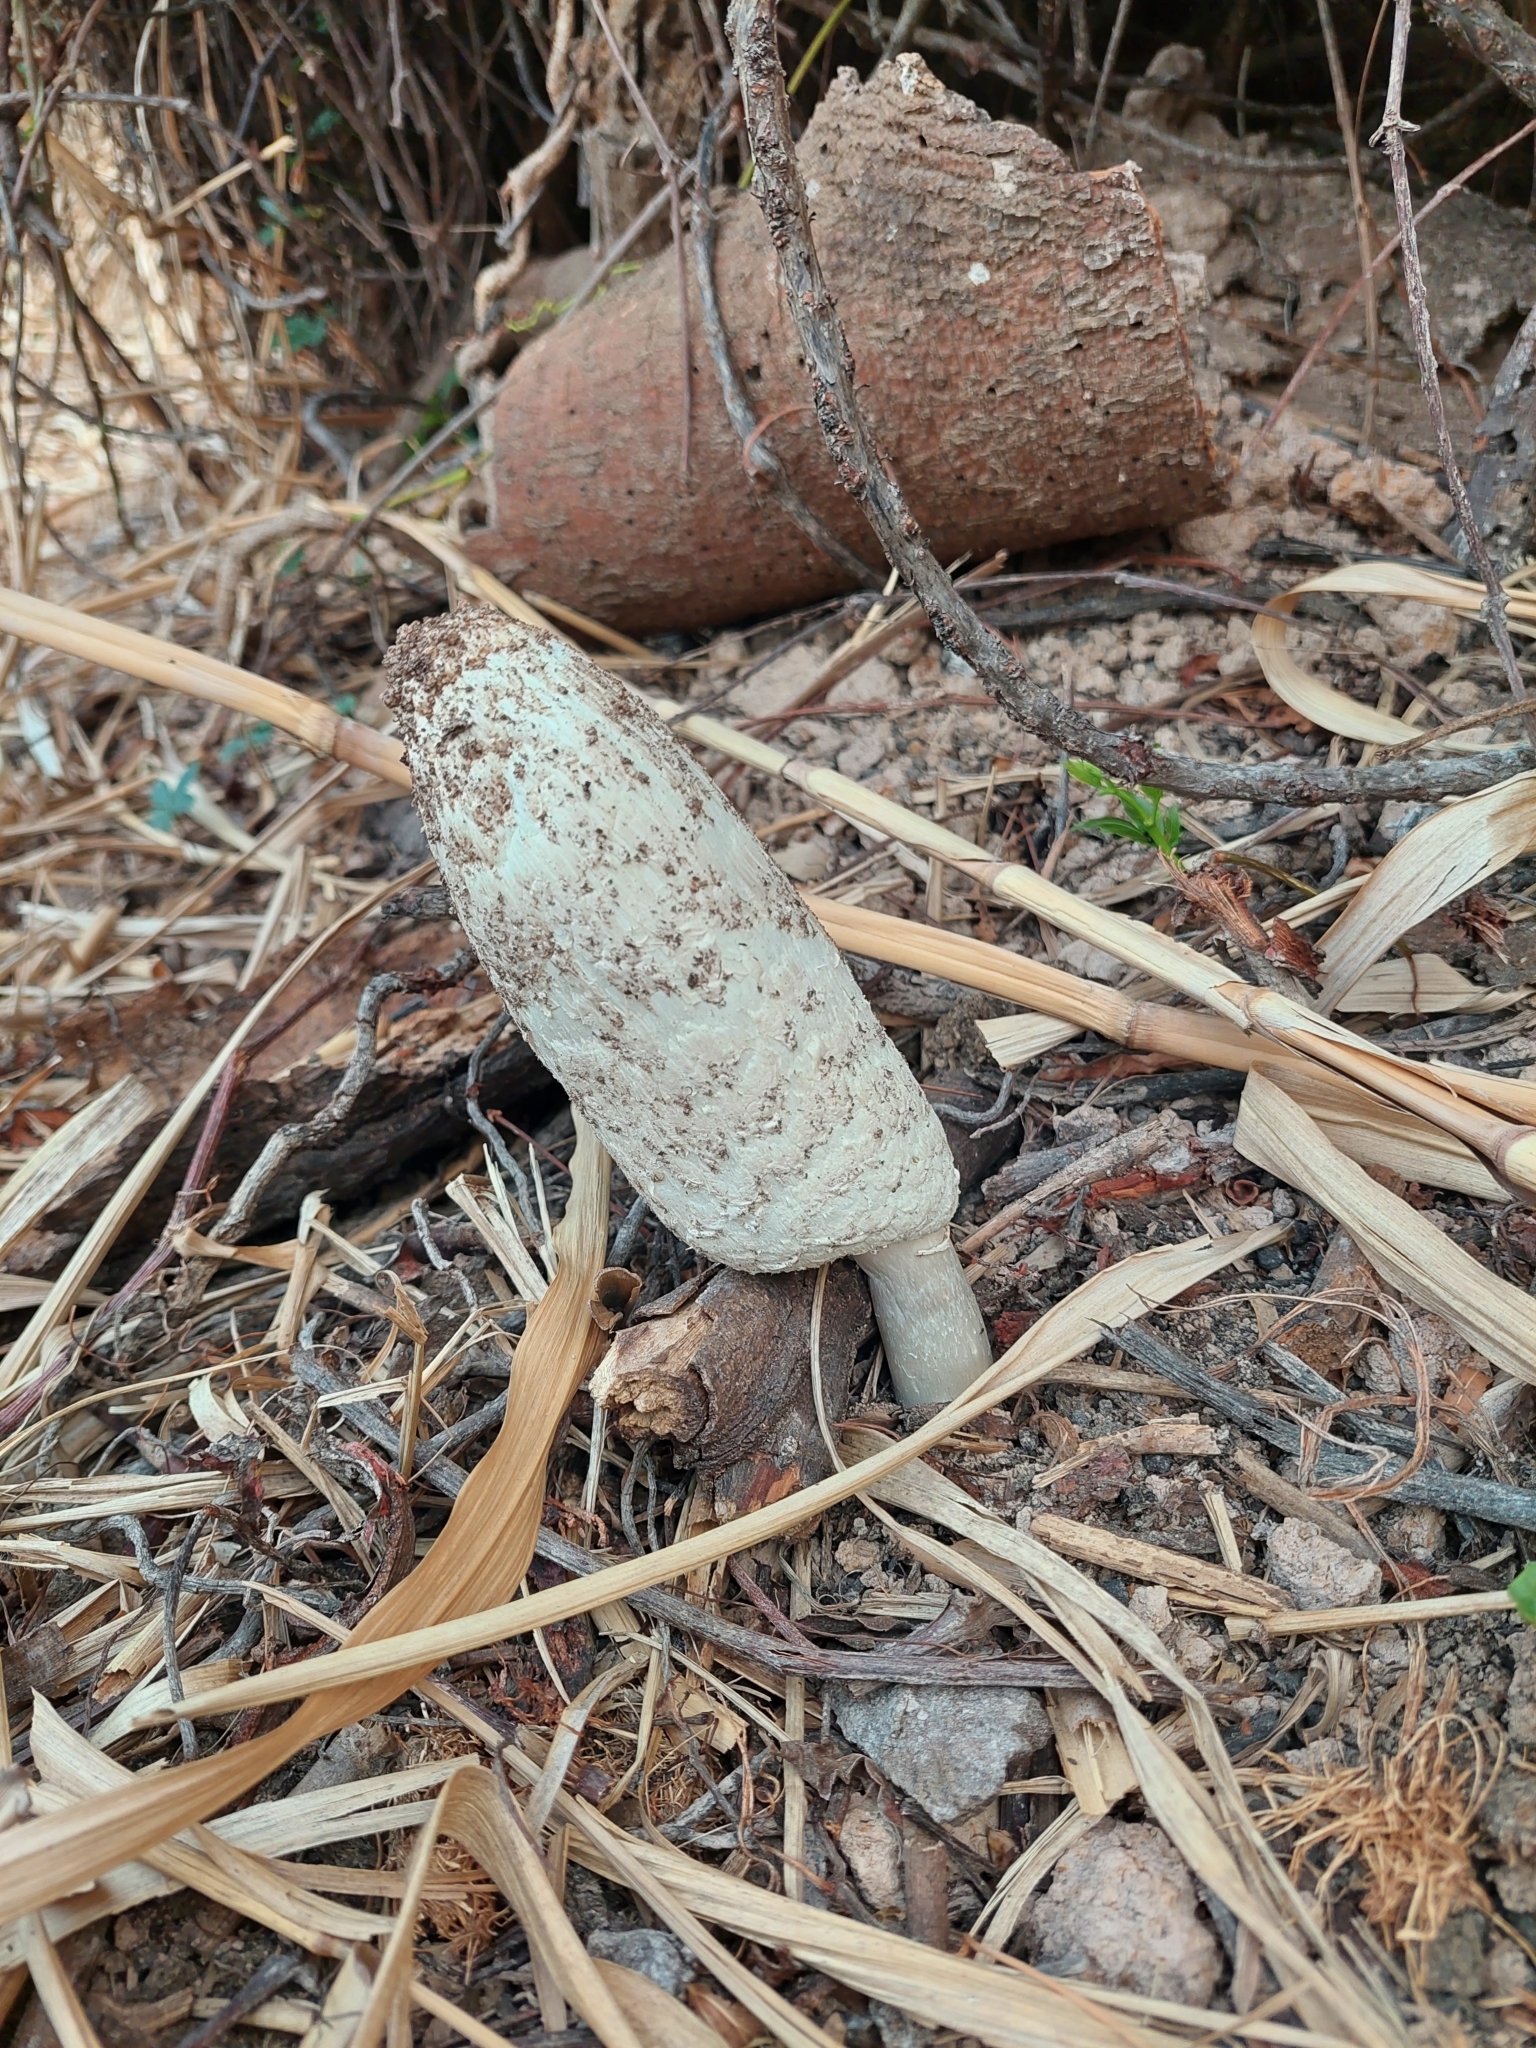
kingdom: Fungi
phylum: Basidiomycota
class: Agaricomycetes
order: Agaricales
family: Agaricaceae
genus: Coprinus
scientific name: Coprinus comatus
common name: Lawyer's wig
